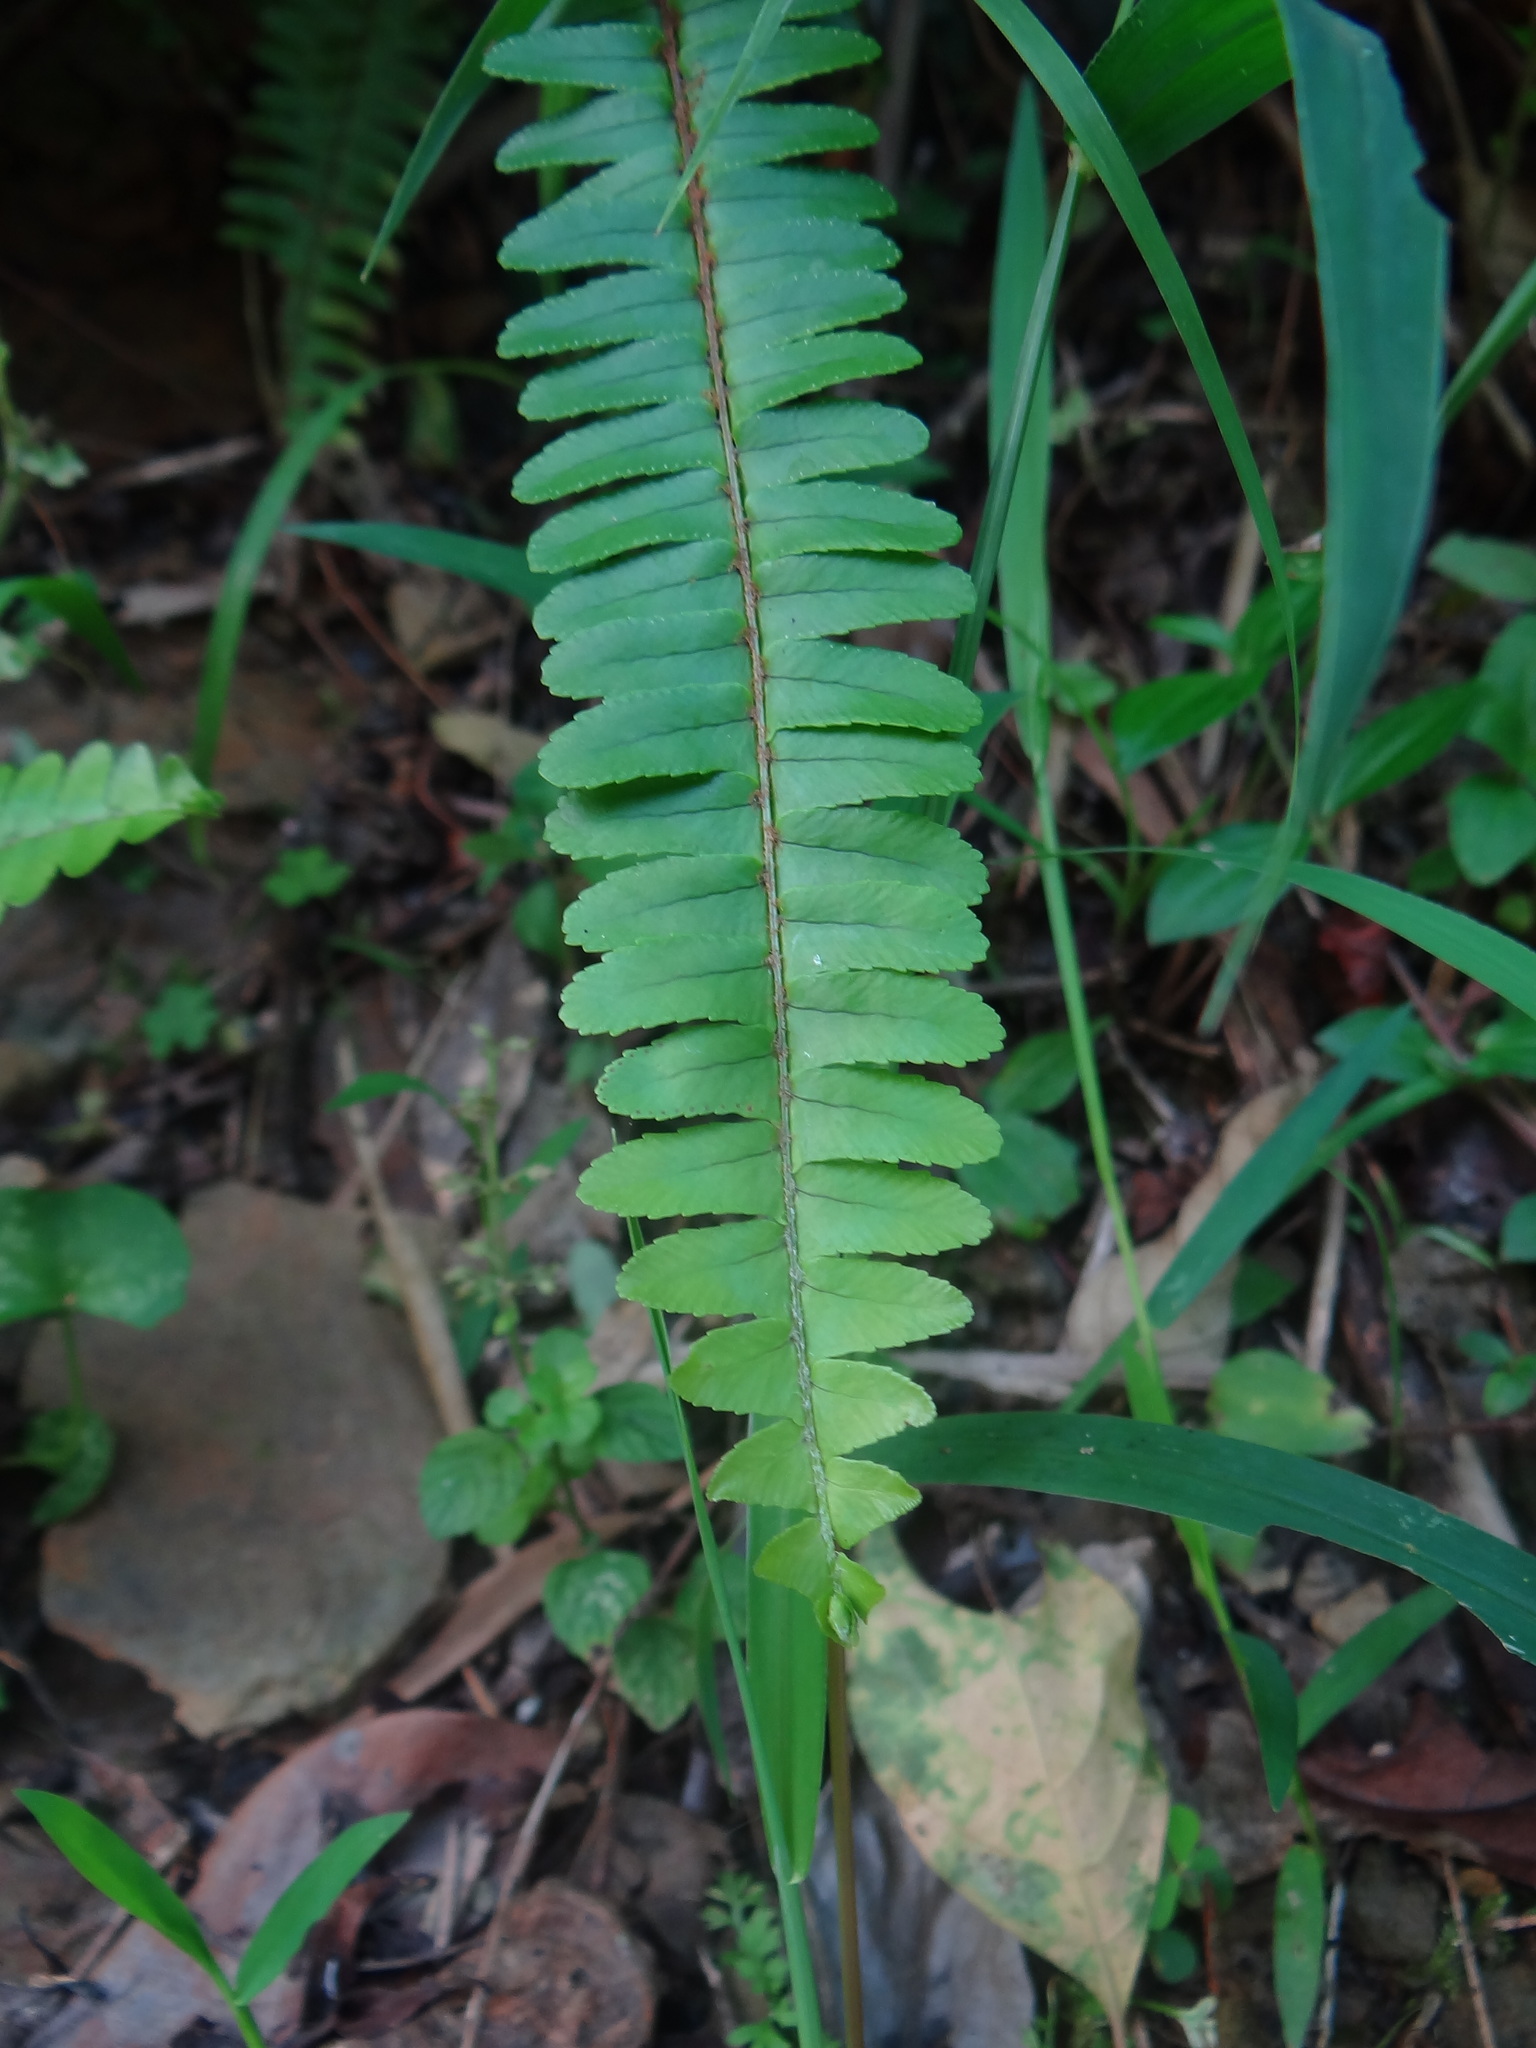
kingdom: Plantae
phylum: Tracheophyta
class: Polypodiopsida
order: Polypodiales
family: Nephrolepidaceae
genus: Nephrolepis
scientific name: Nephrolepis cordifolia
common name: Narrow swordfern
